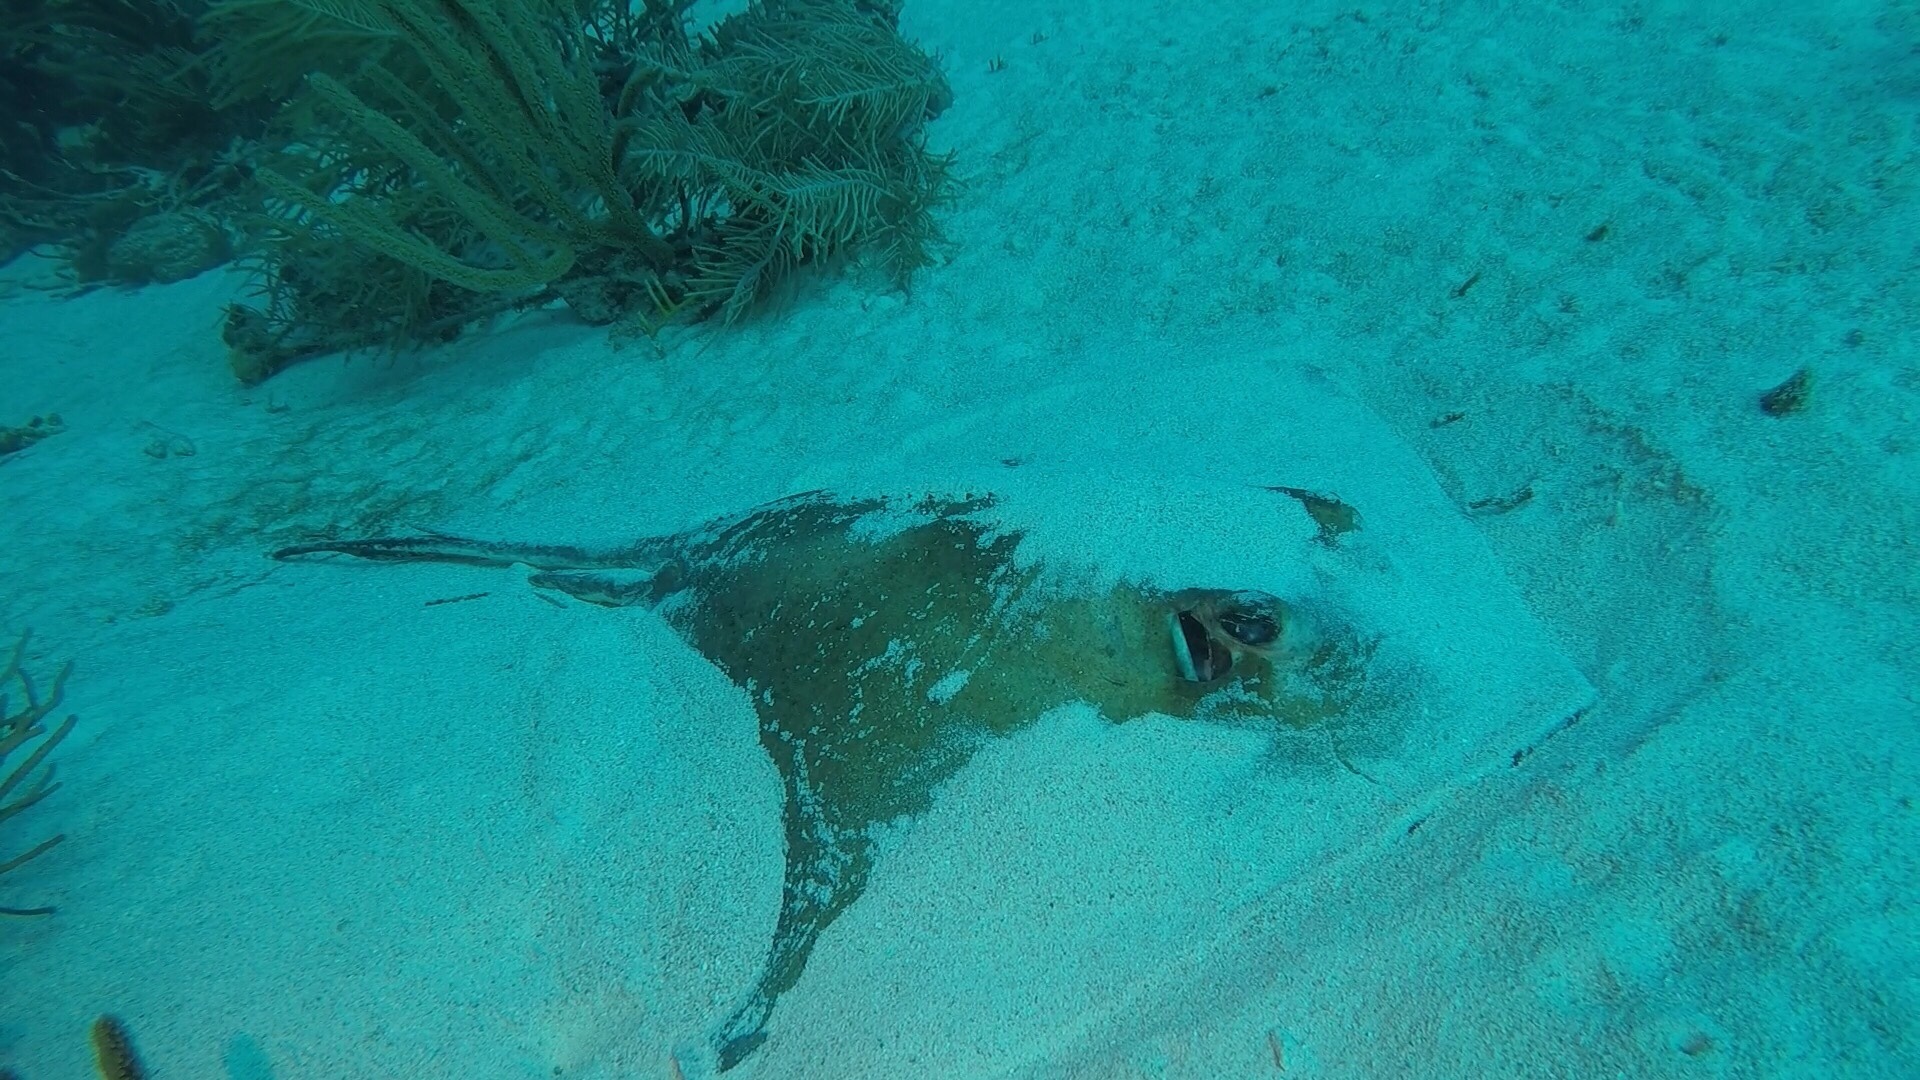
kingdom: Animalia
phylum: Chordata
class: Elasmobranchii
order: Myliobatiformes
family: Dasyatidae
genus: Hypanus
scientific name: Hypanus americanus
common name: Southern stingray
